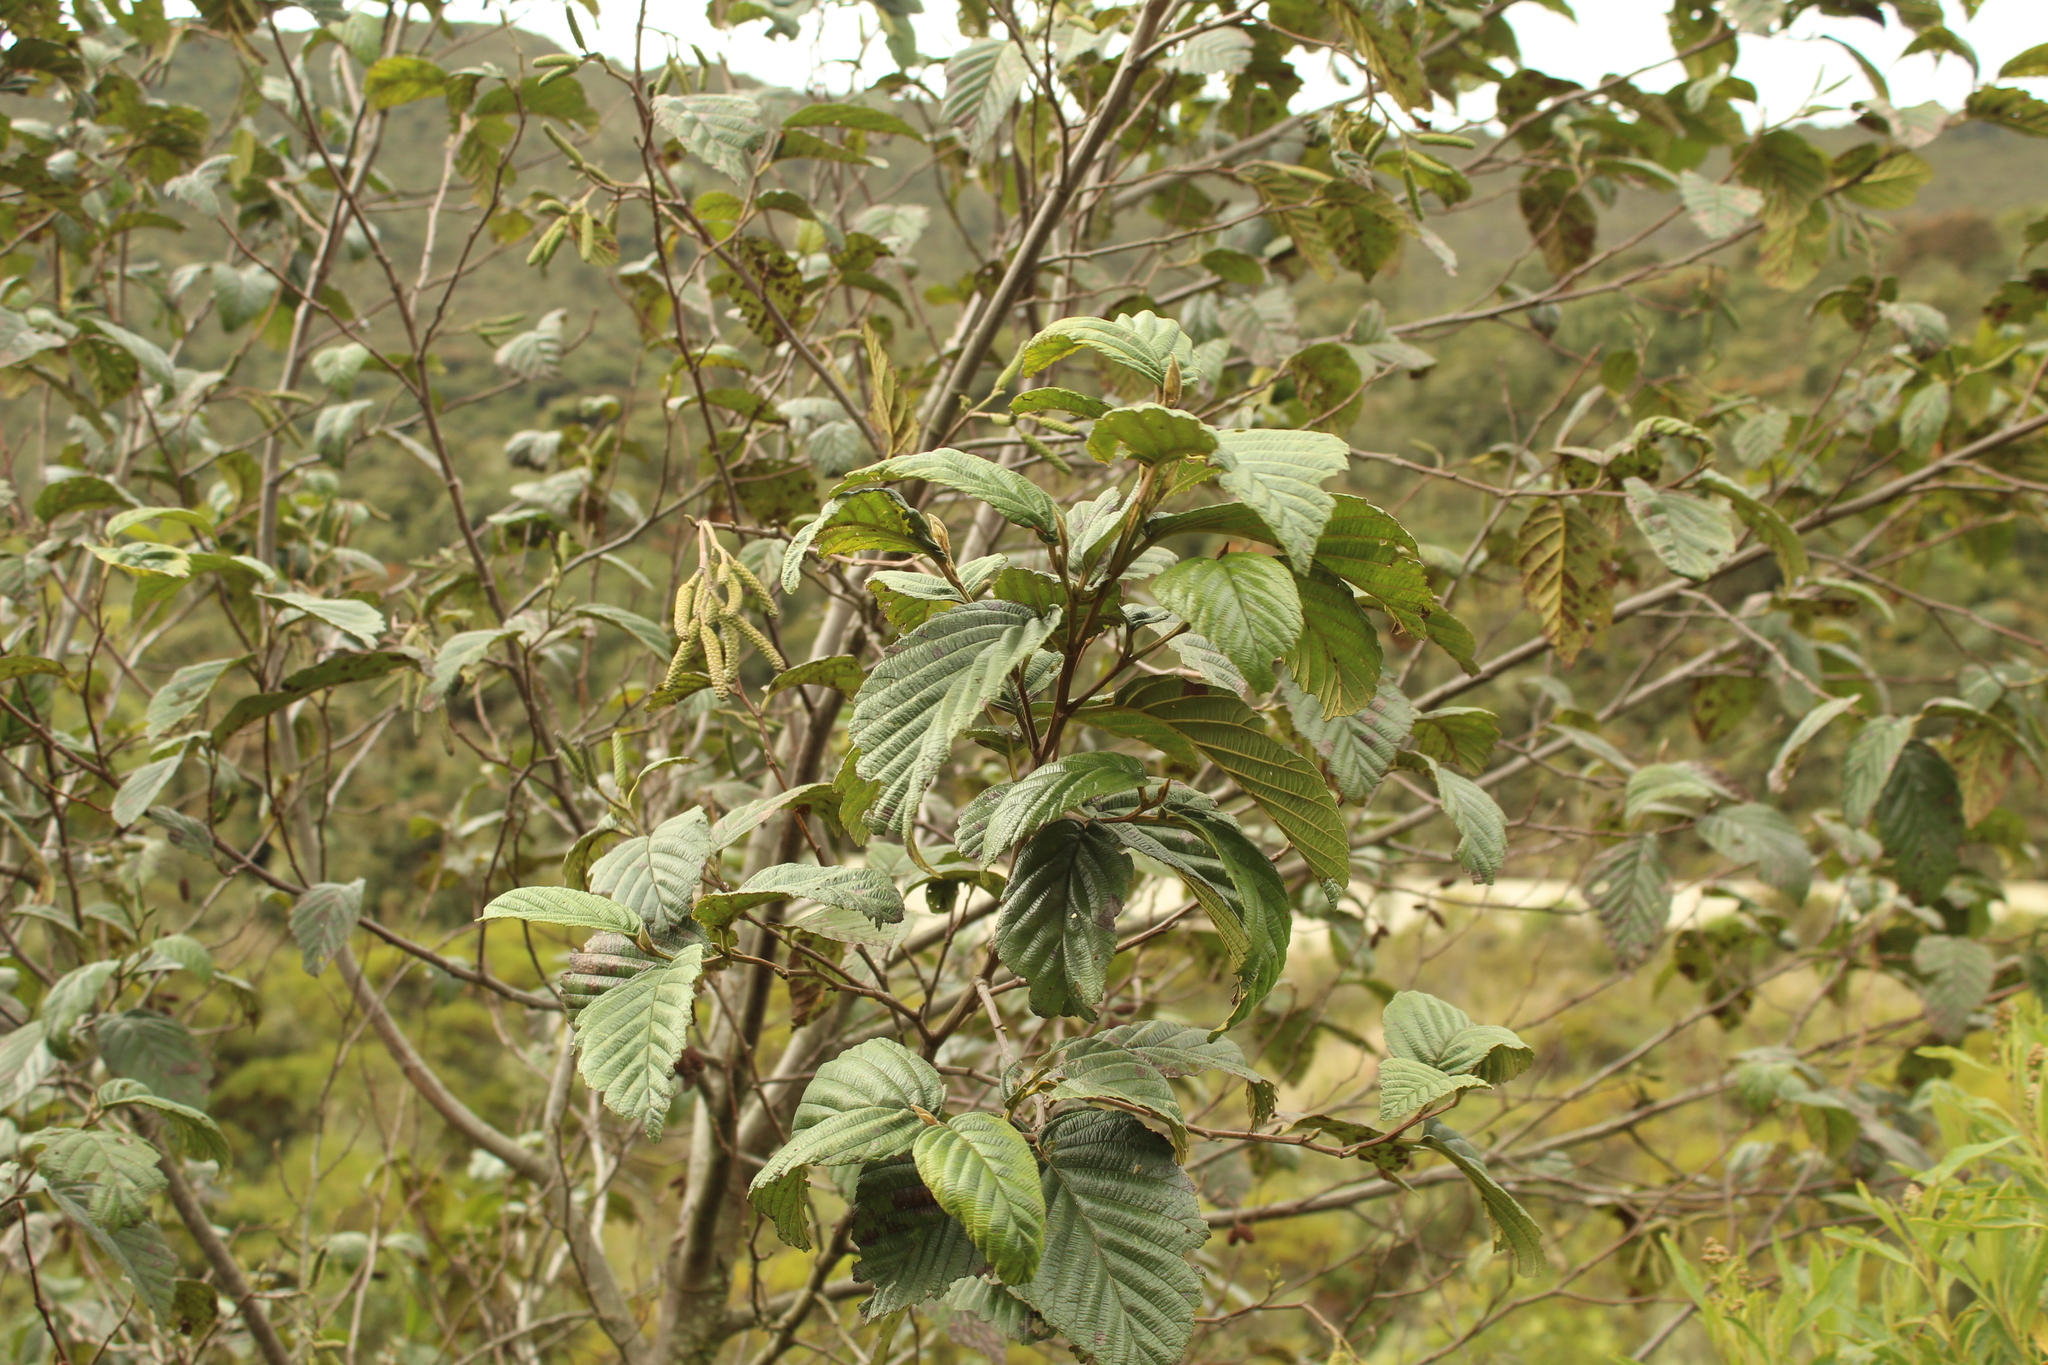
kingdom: Plantae
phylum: Tracheophyta
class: Magnoliopsida
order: Fagales
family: Betulaceae
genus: Alnus
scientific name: Alnus acuminata
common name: Alder
